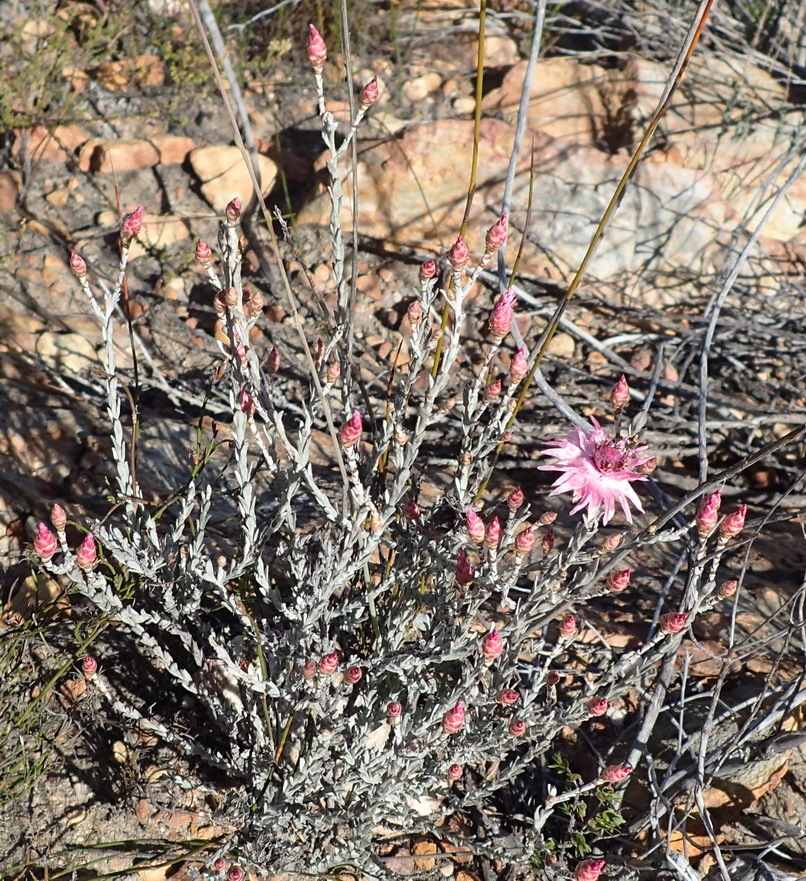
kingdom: Plantae
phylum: Tracheophyta
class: Magnoliopsida
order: Asterales
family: Asteraceae
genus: Syncarpha
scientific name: Syncarpha canescens
